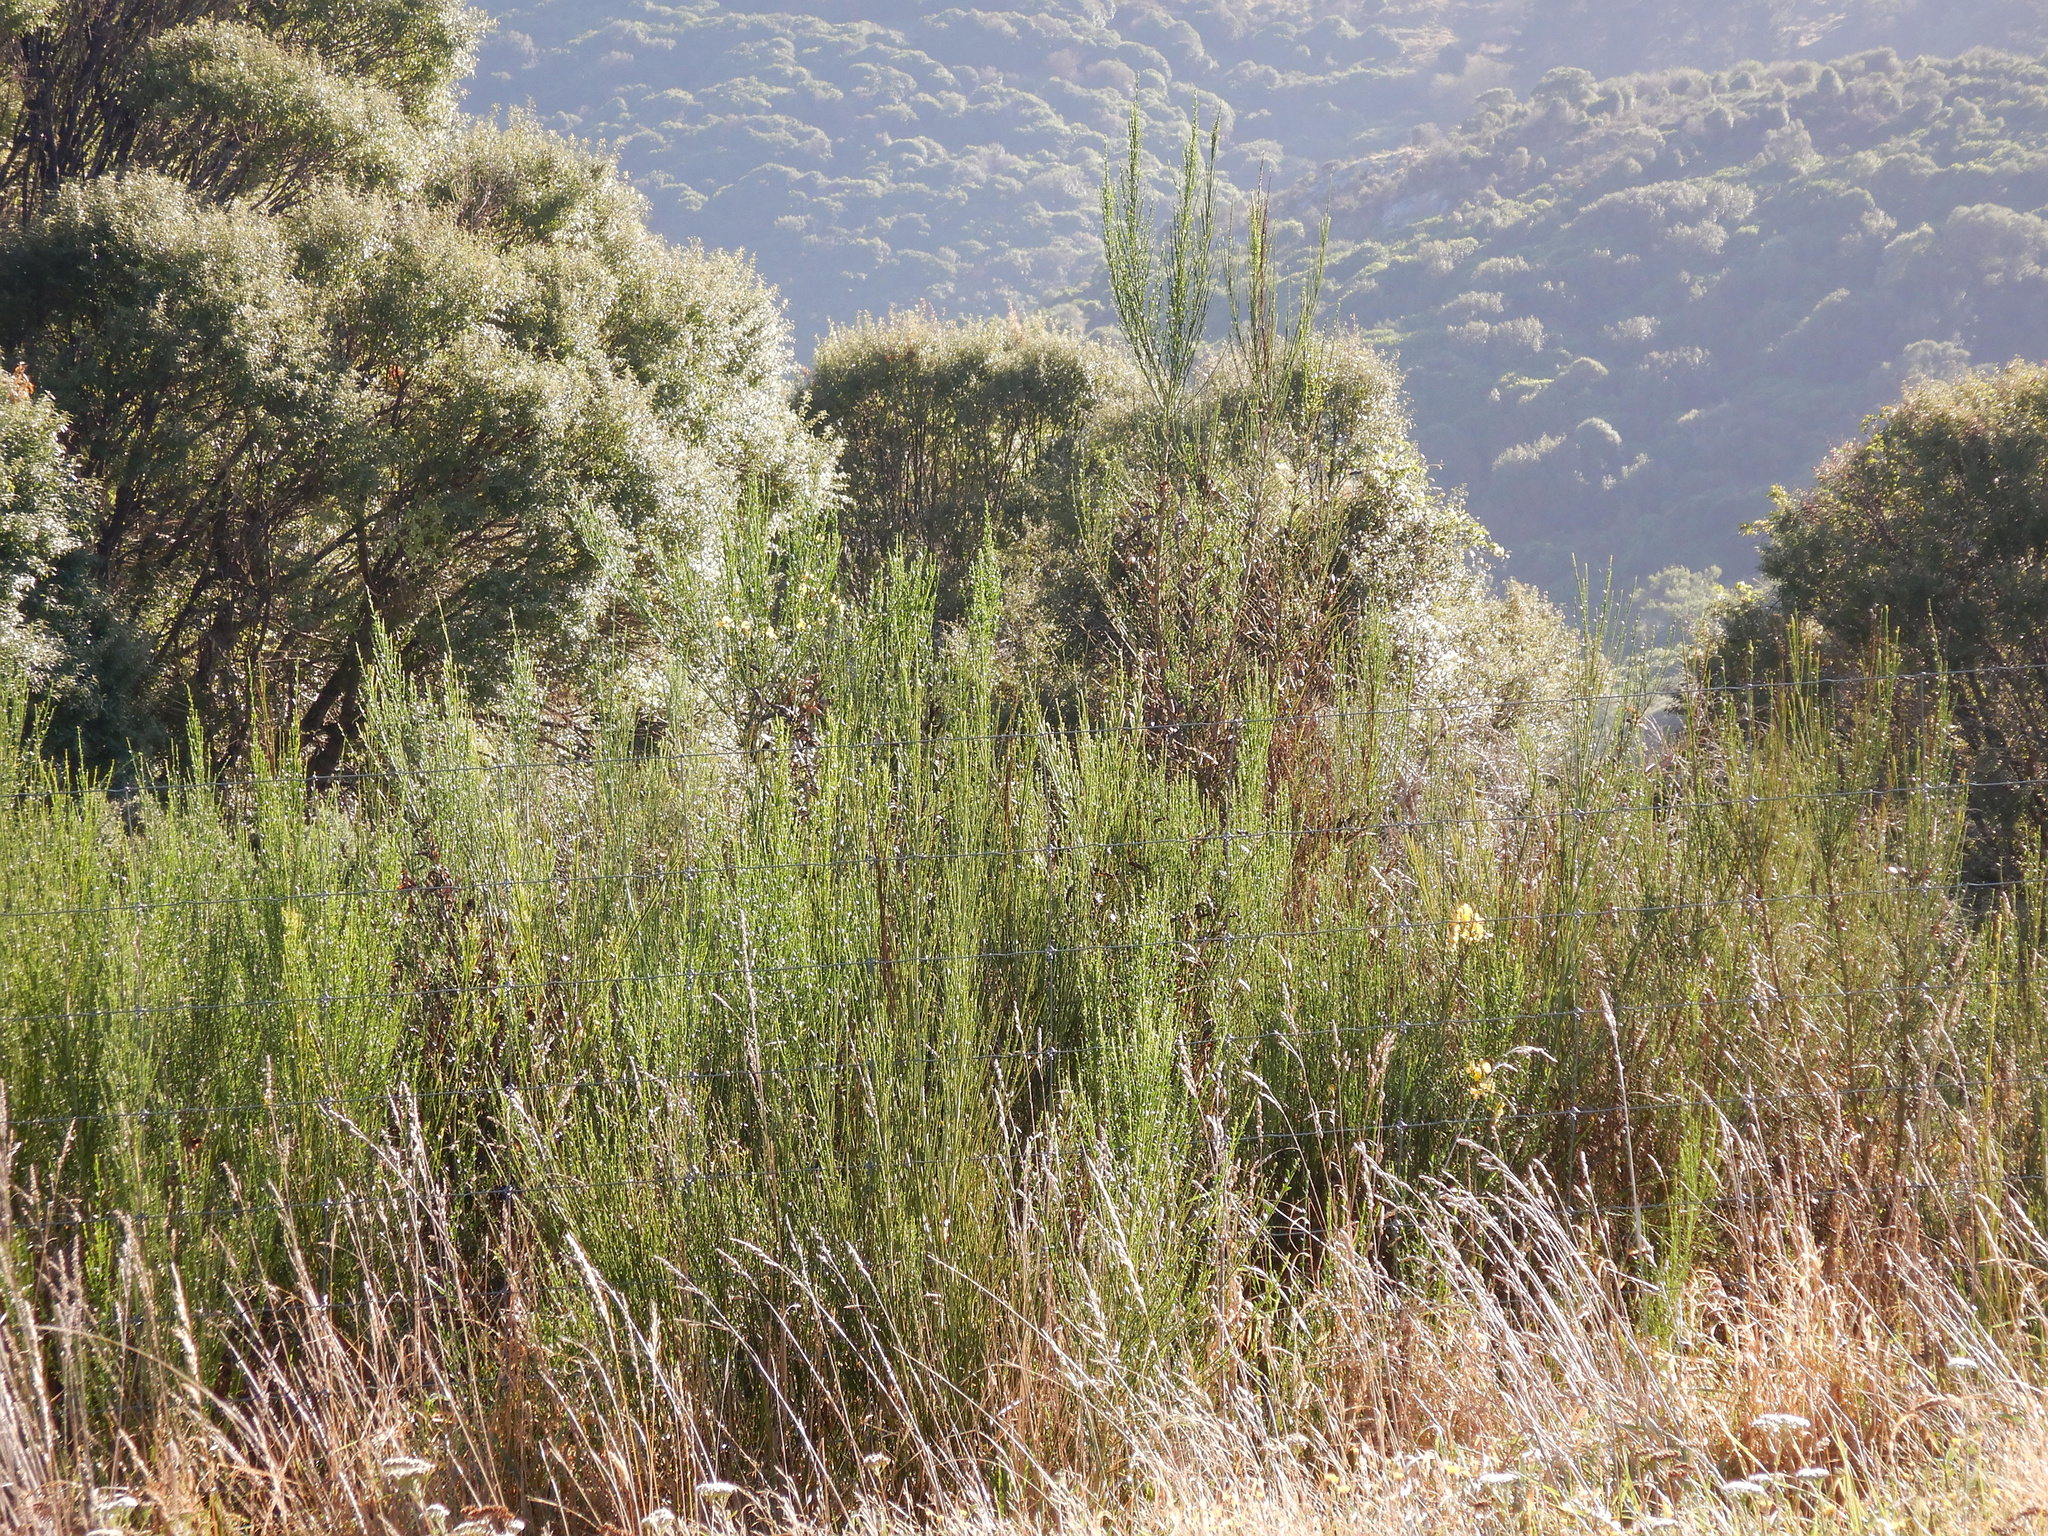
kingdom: Plantae
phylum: Tracheophyta
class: Magnoliopsida
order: Fabales
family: Fabaceae
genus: Cytisus
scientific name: Cytisus scoparius
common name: Scotch broom
